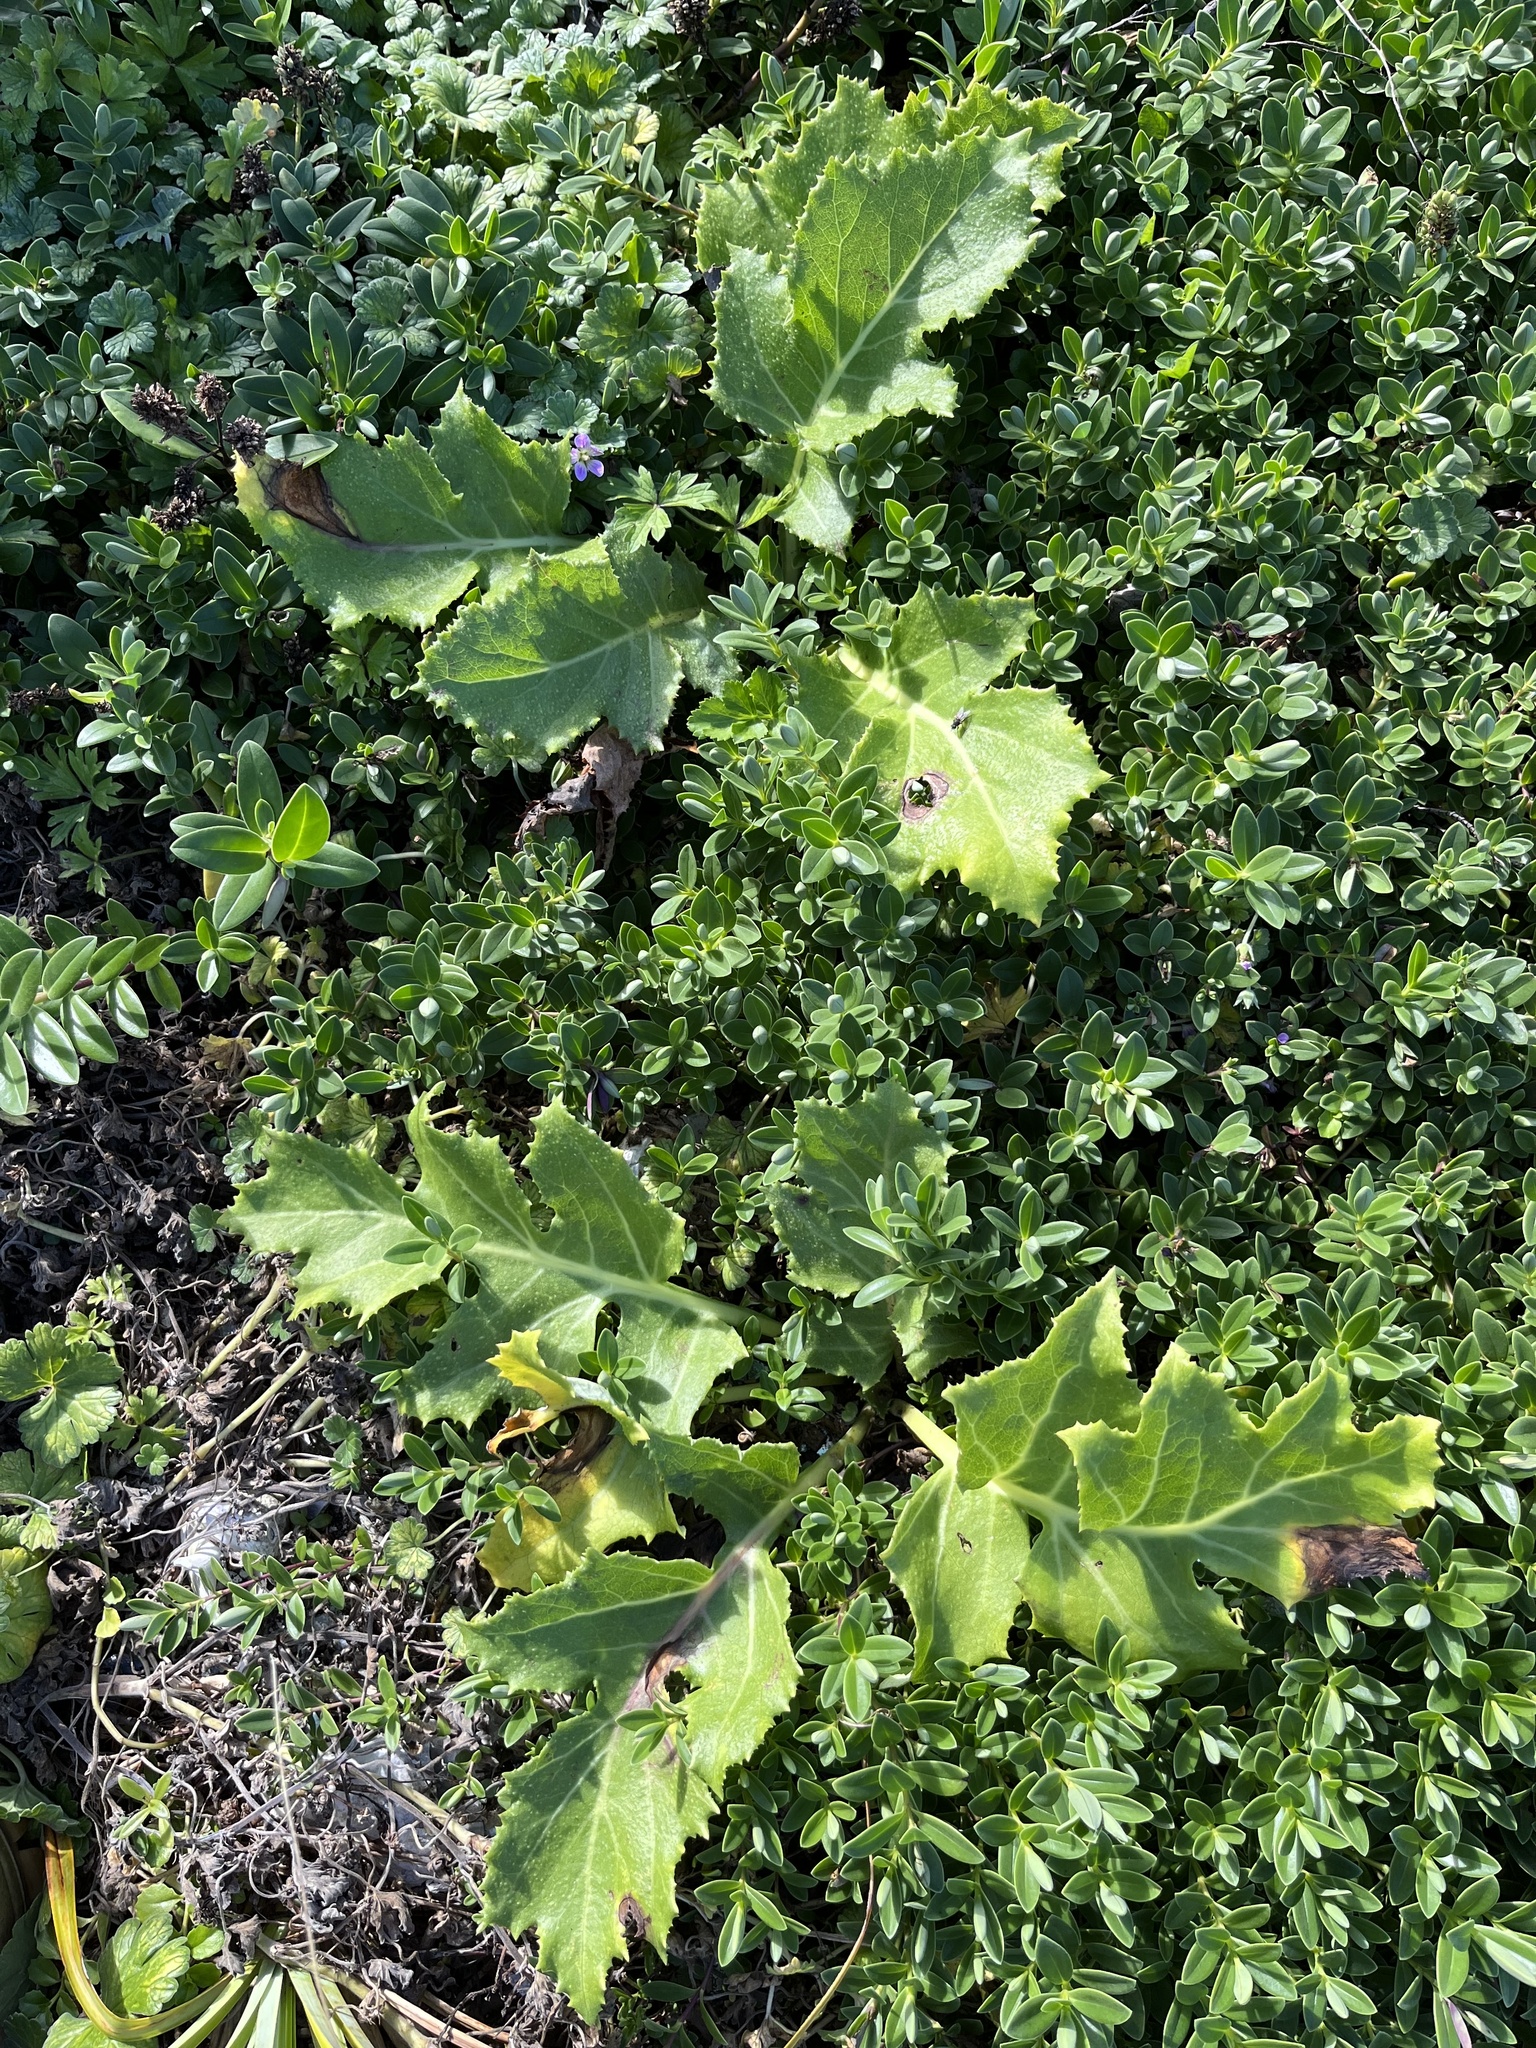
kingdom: Plantae
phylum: Tracheophyta
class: Magnoliopsida
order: Asterales
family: Asteraceae
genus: Sonchus
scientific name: Sonchus grandifolius
